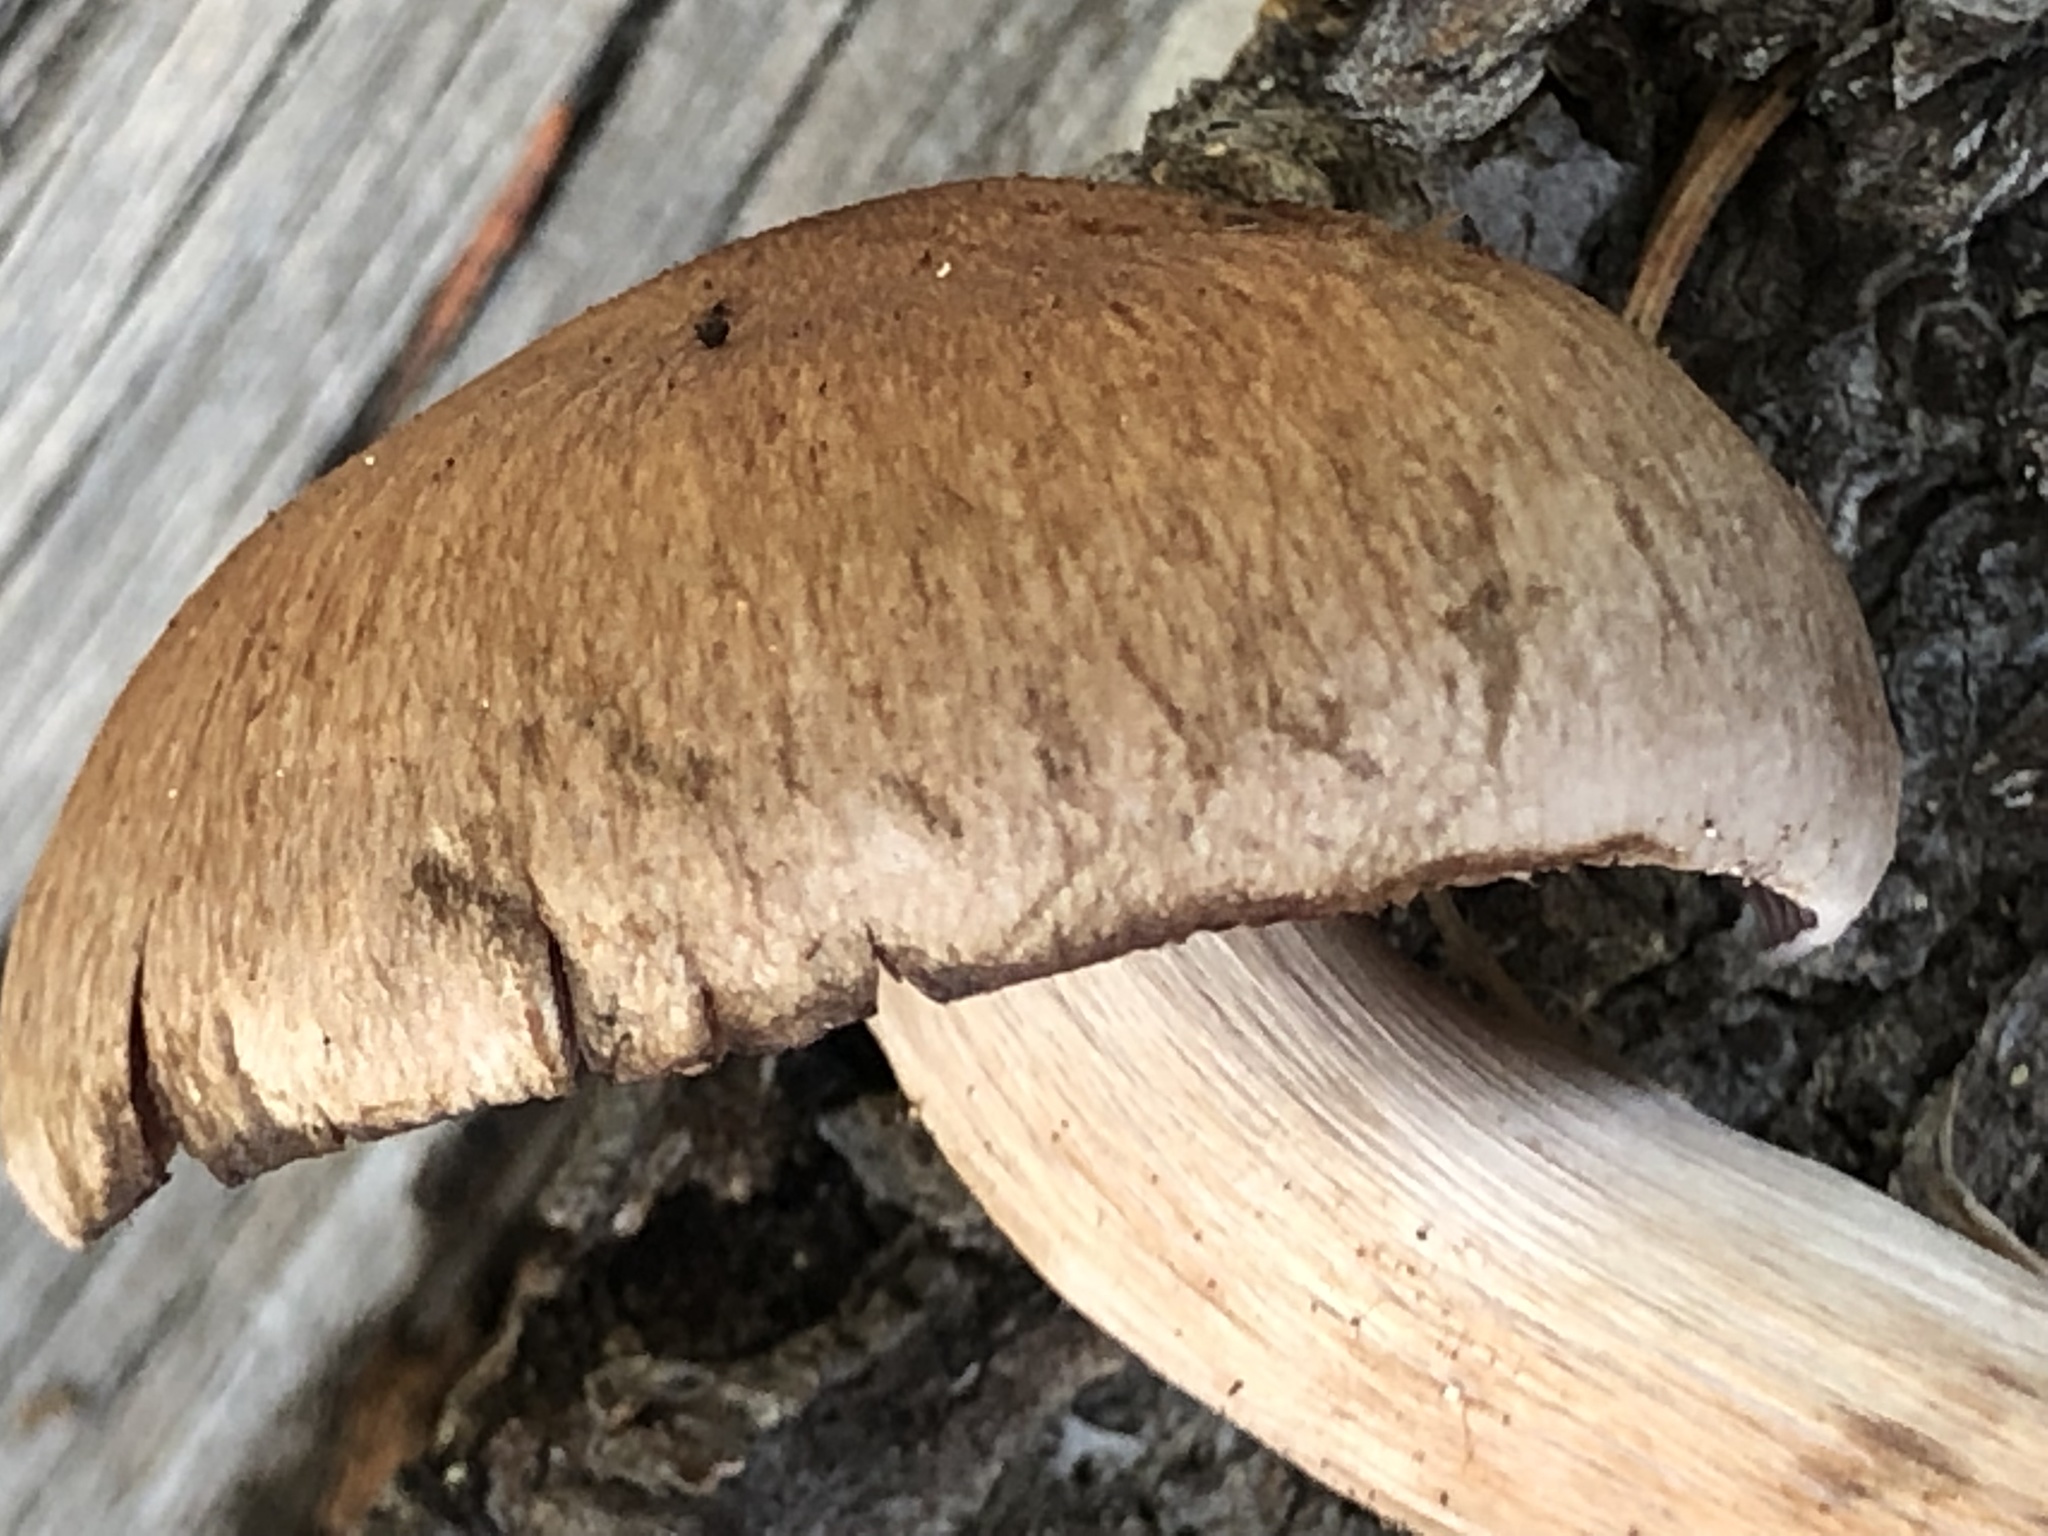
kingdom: Fungi
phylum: Basidiomycota
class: Agaricomycetes
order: Agaricales
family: Cortinariaceae
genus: Cortinarius
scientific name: Cortinarius brunneus
